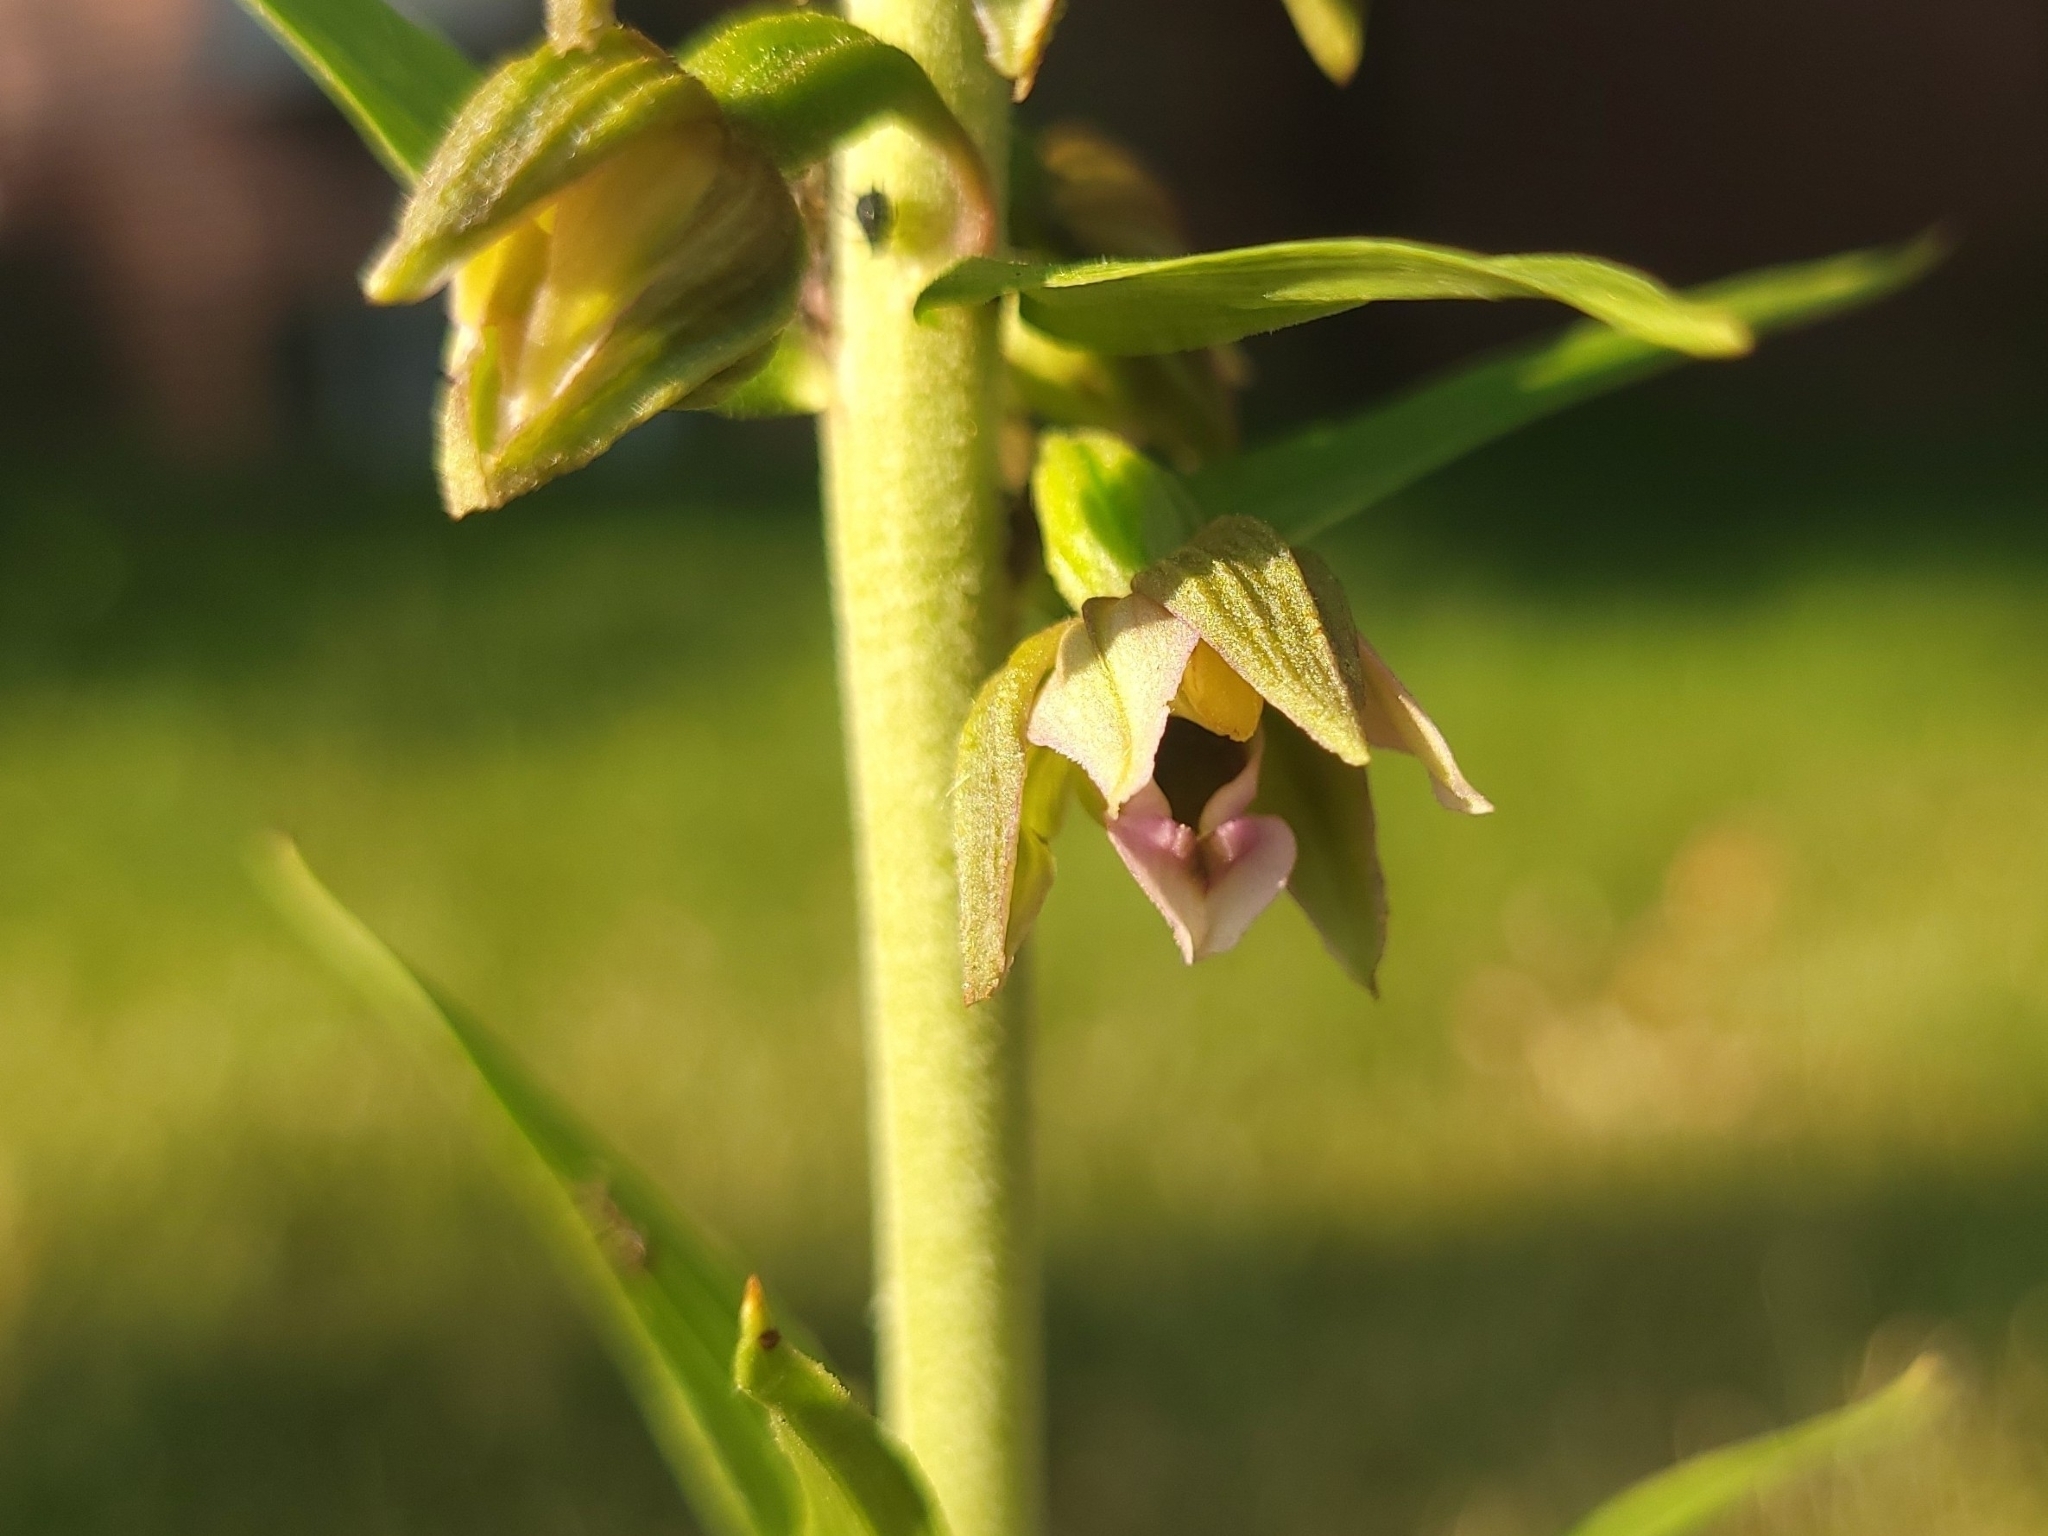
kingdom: Plantae
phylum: Tracheophyta
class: Liliopsida
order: Asparagales
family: Orchidaceae
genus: Epipactis
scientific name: Epipactis helleborine
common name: Broad-leaved helleborine
